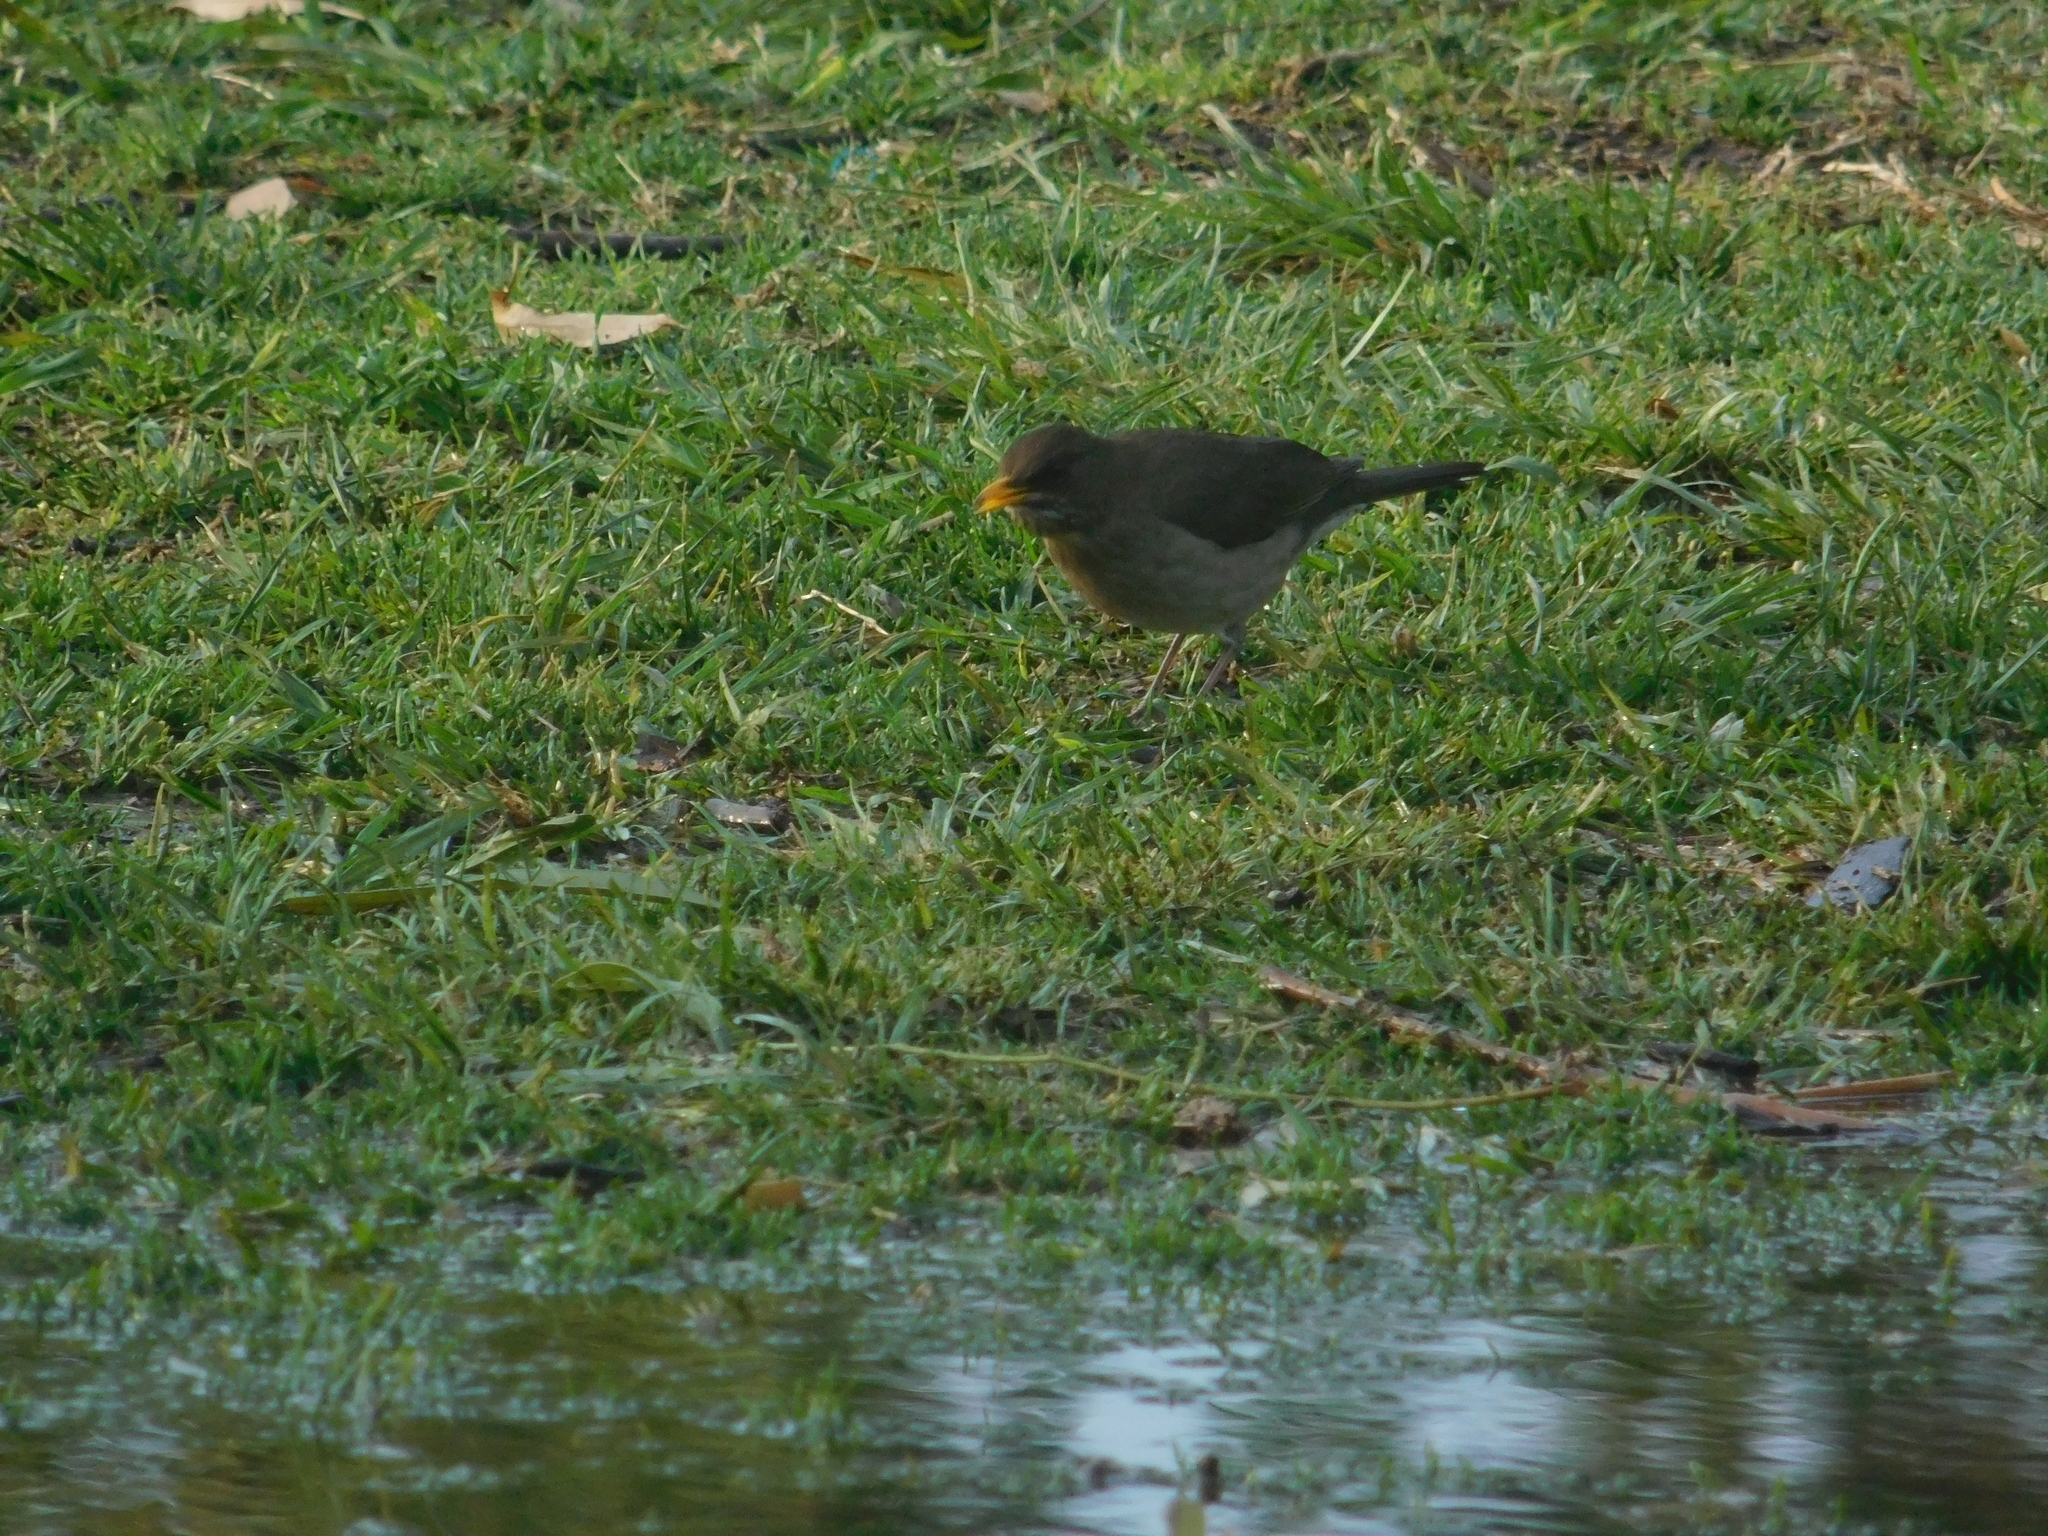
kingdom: Animalia
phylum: Chordata
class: Aves
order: Passeriformes
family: Turdidae
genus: Turdus
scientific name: Turdus amaurochalinus
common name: Creamy-bellied thrush
